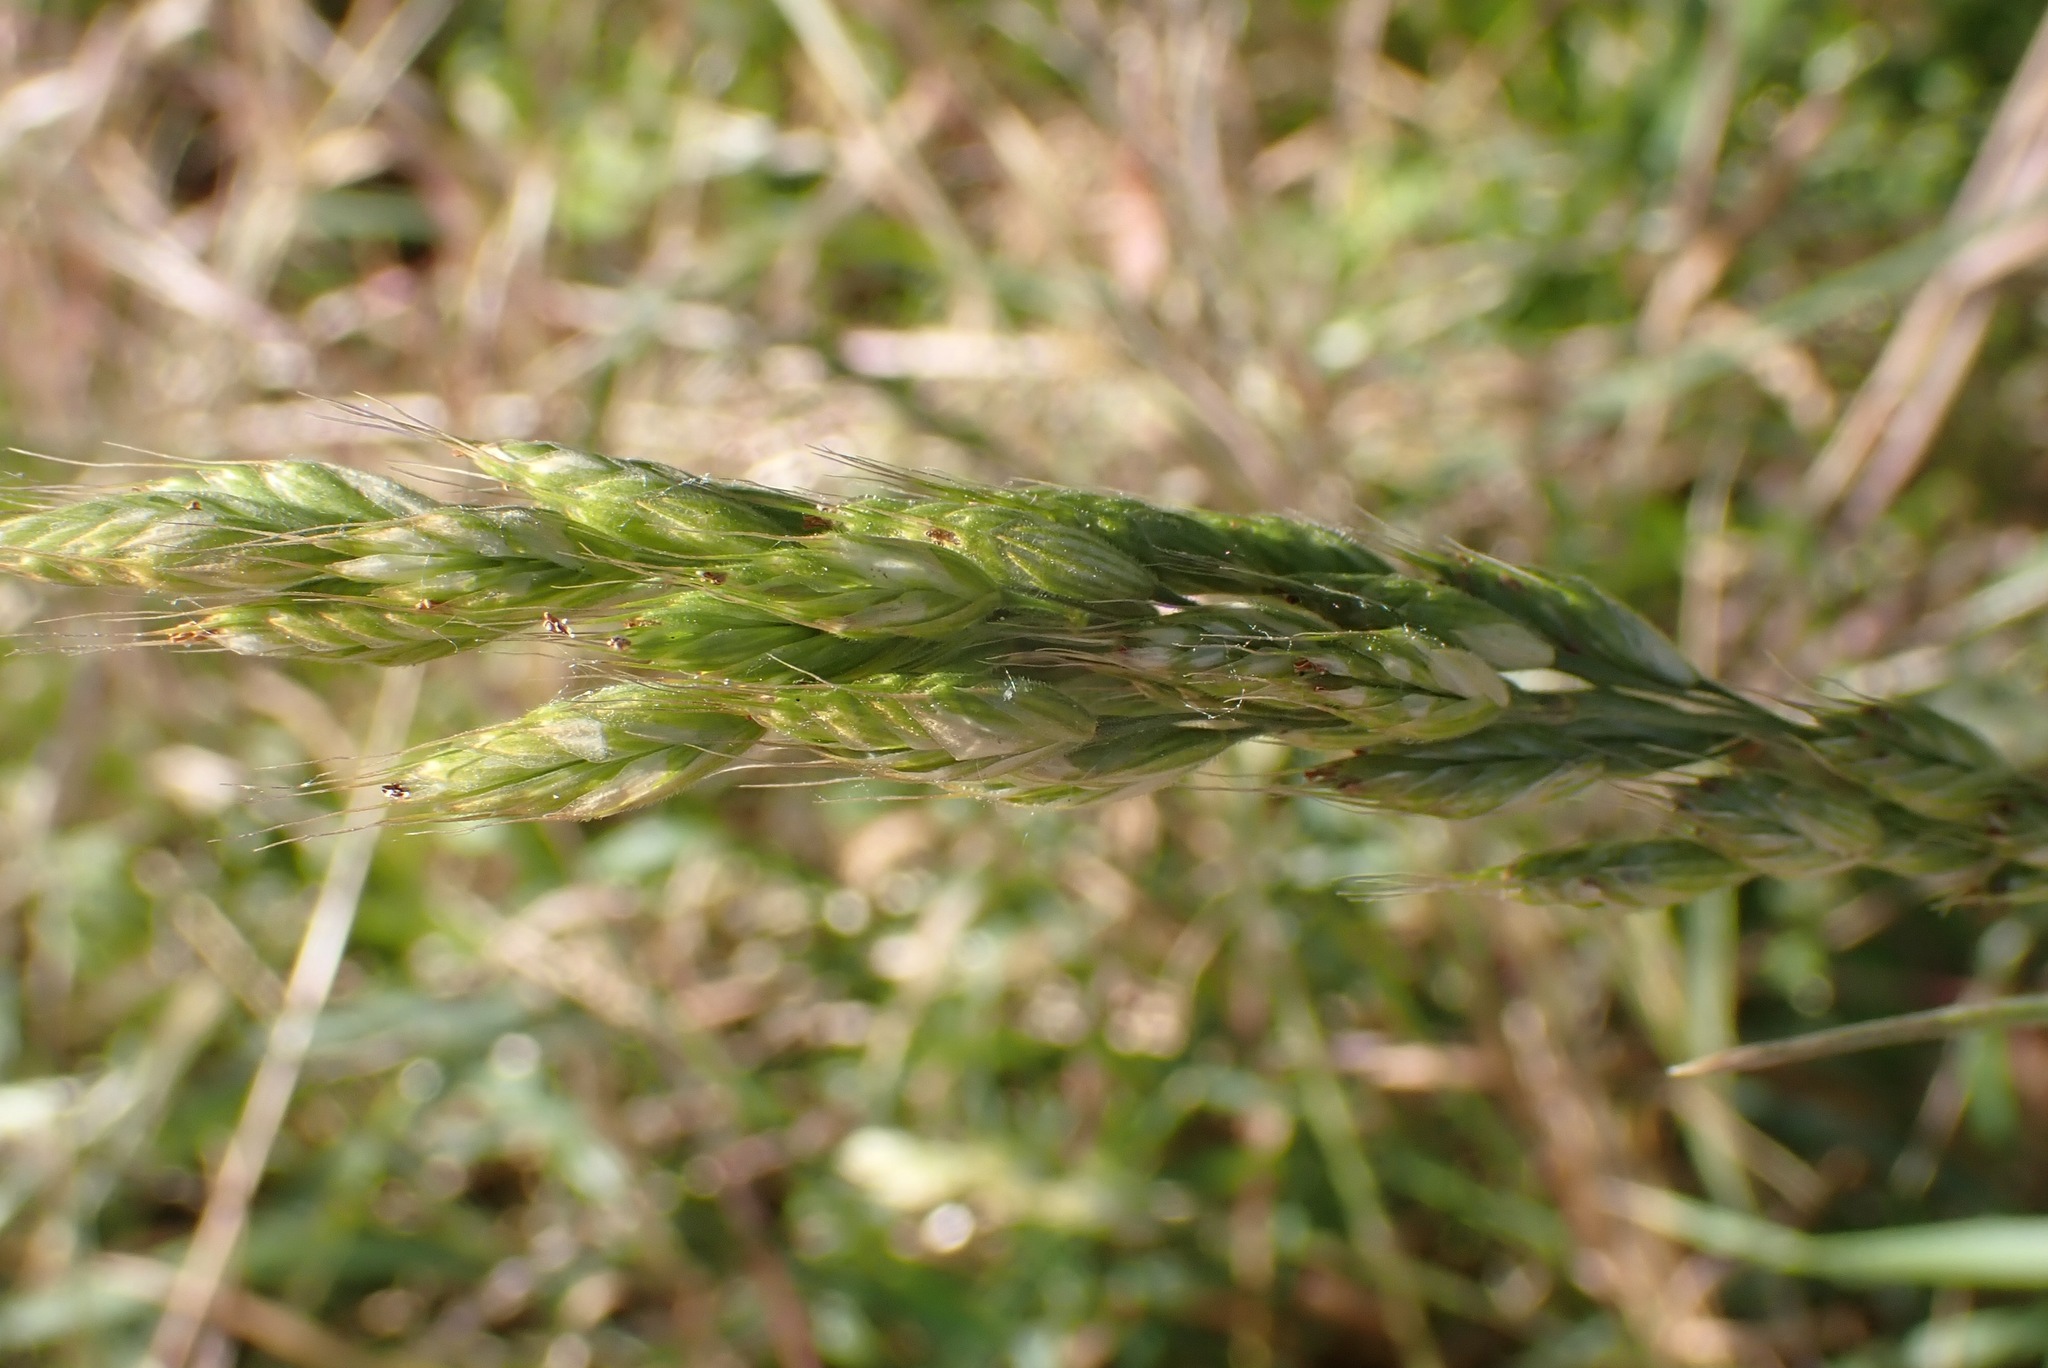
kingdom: Plantae
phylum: Tracheophyta
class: Liliopsida
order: Poales
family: Poaceae
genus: Bromus
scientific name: Bromus hordeaceus
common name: Soft brome
